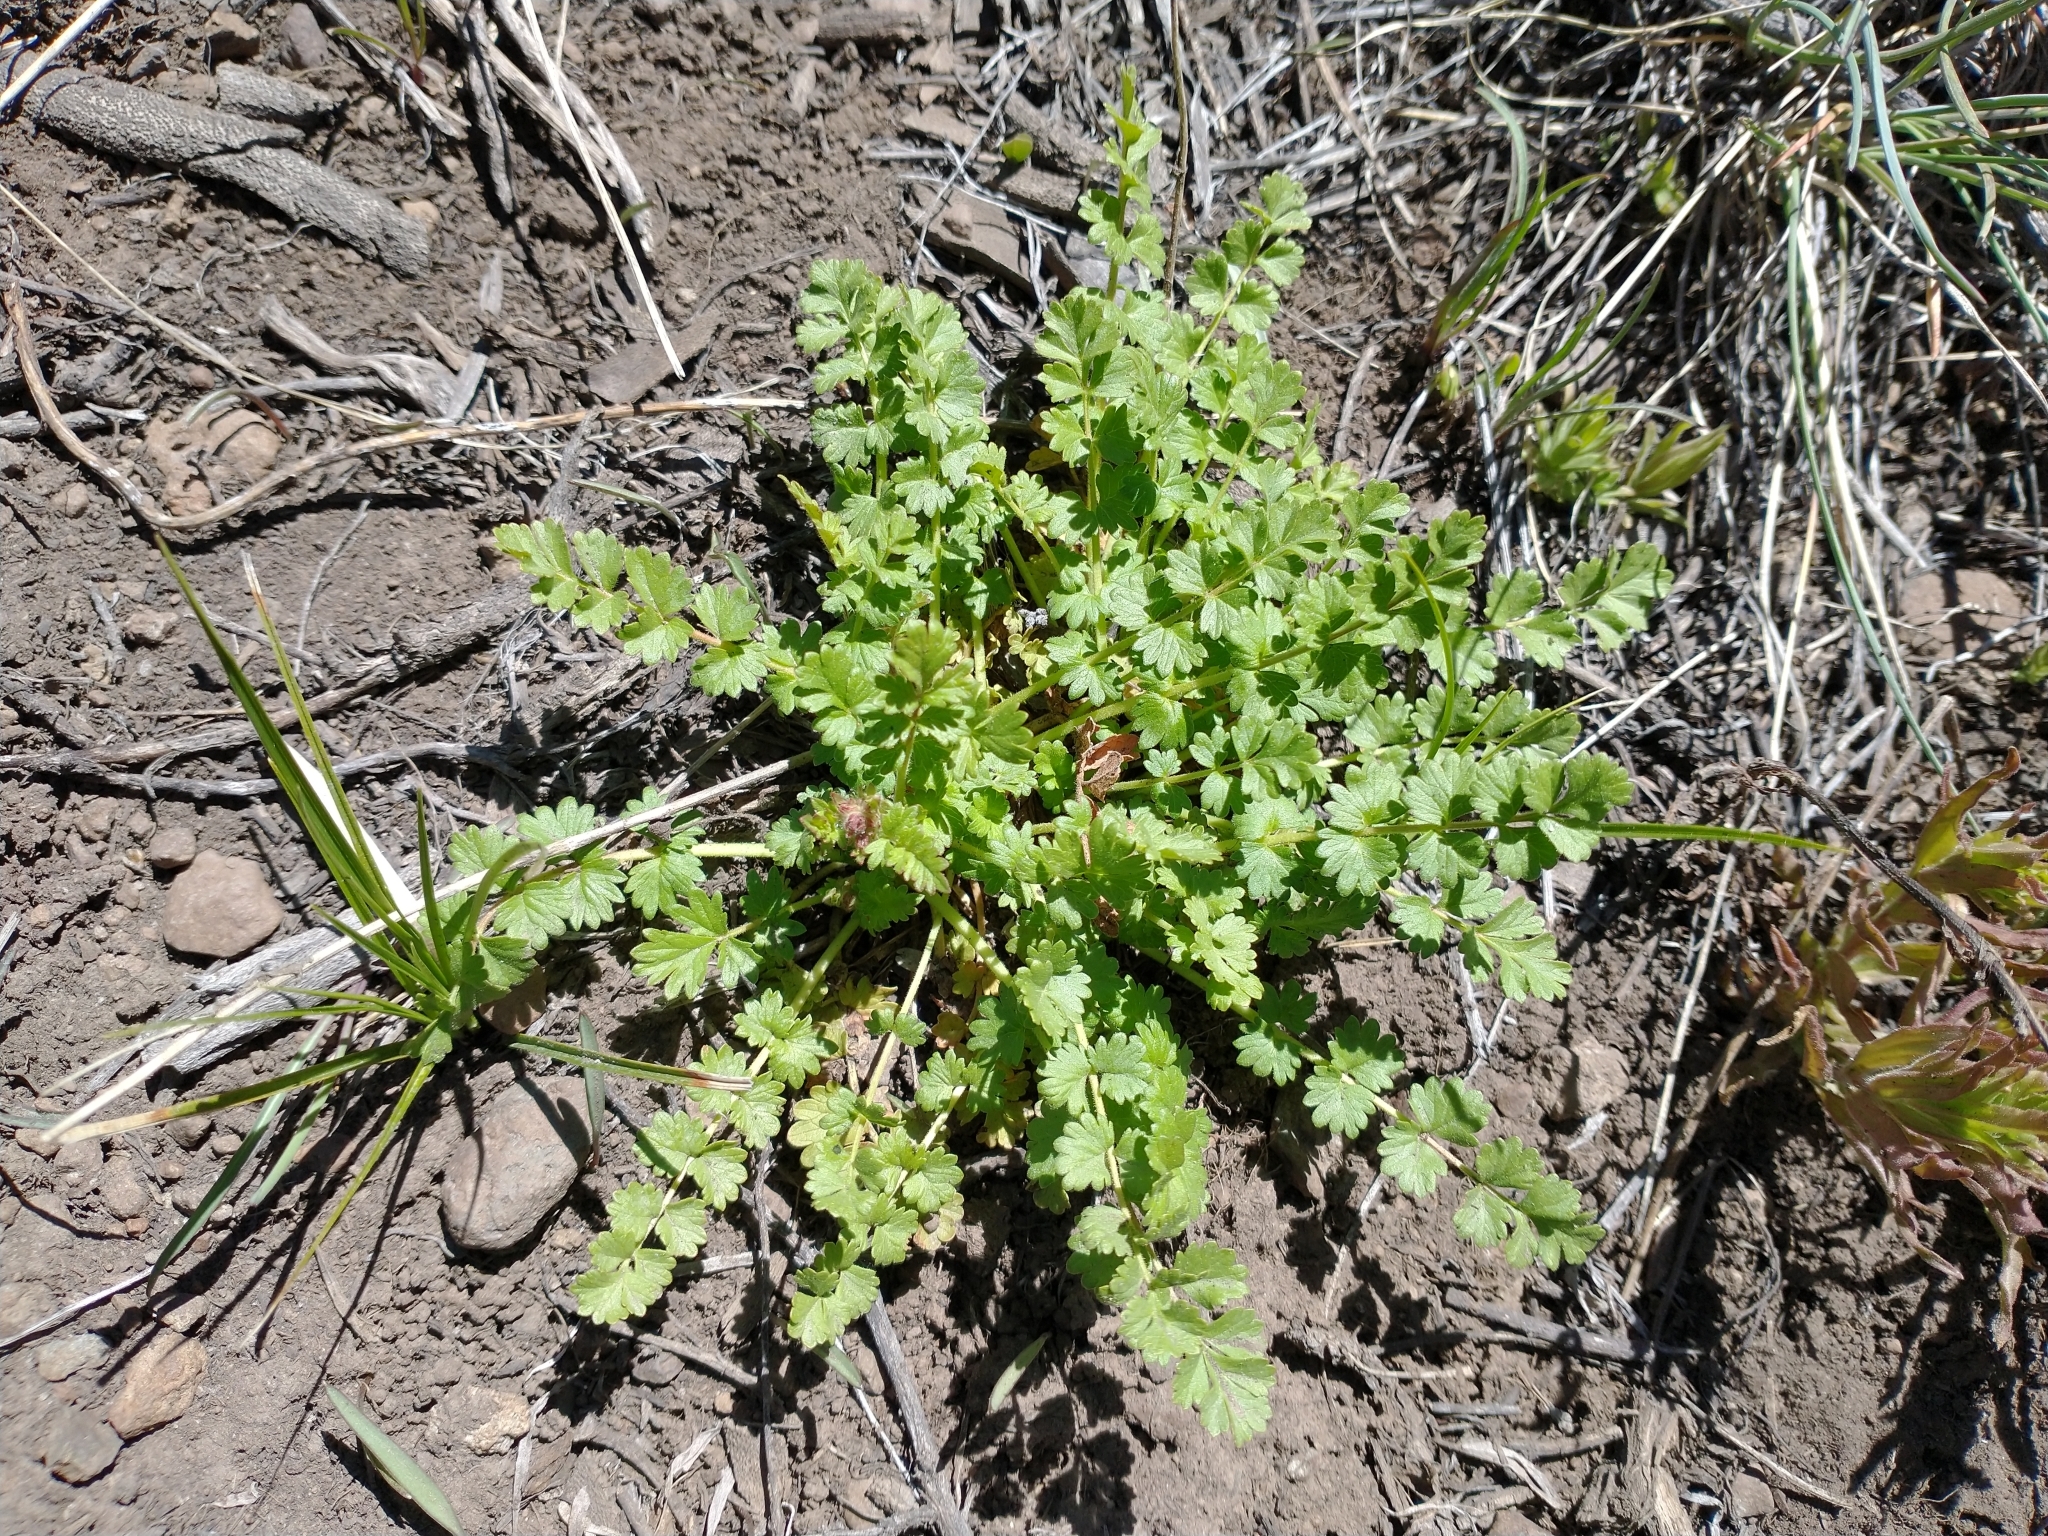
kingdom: Plantae
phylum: Tracheophyta
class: Magnoliopsida
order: Rosales
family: Rosaceae
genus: Potentilla
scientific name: Potentilla douglasii
